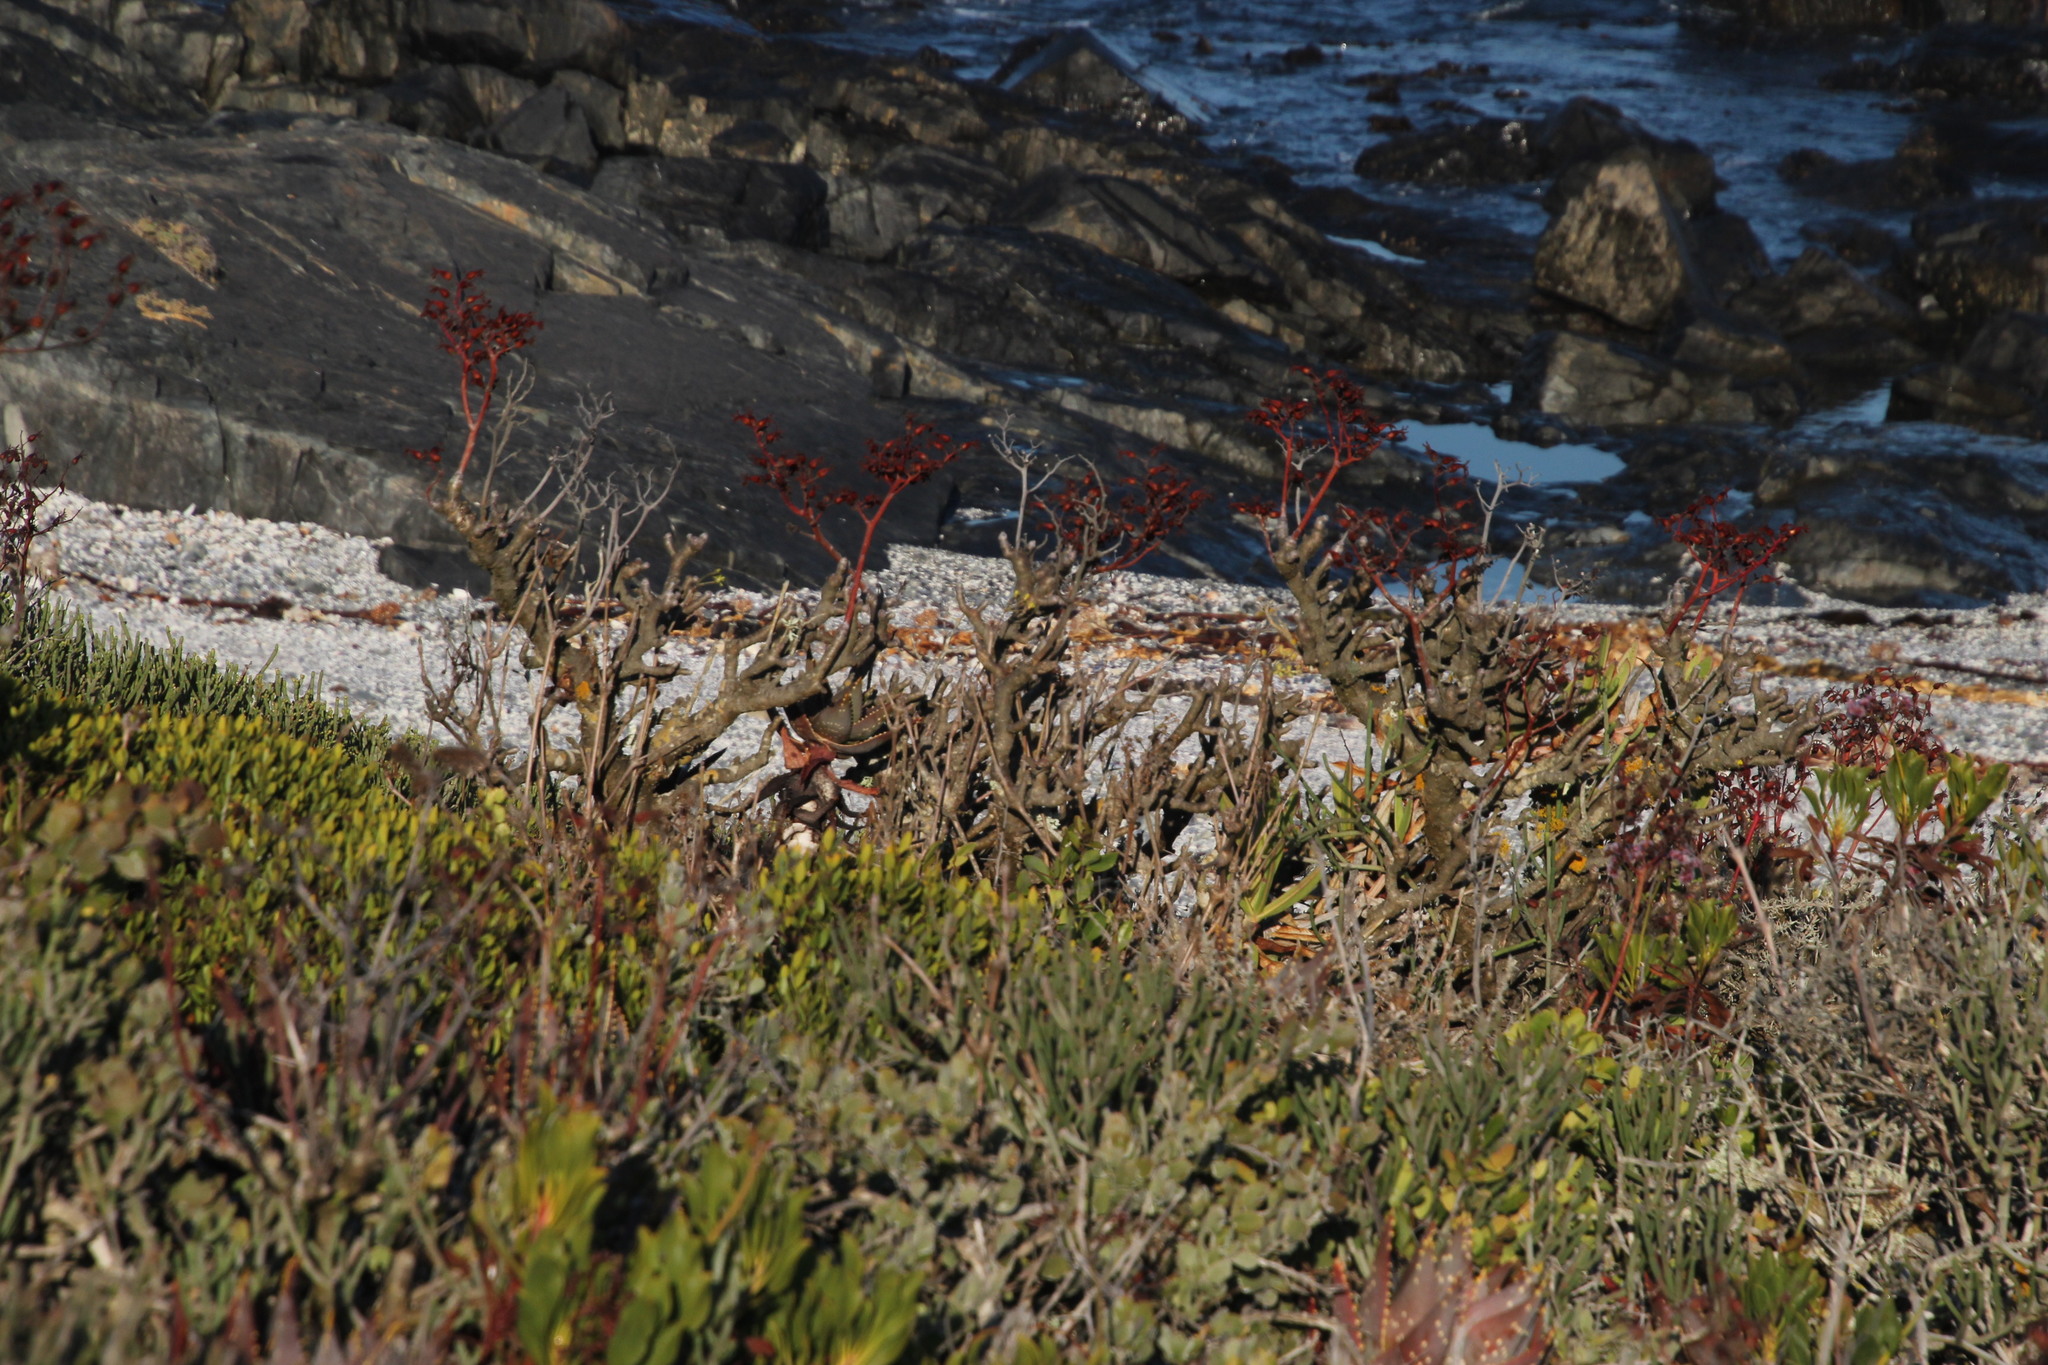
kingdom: Plantae
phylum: Tracheophyta
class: Magnoliopsida
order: Saxifragales
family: Crassulaceae
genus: Tylecodon
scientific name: Tylecodon paniculatus
